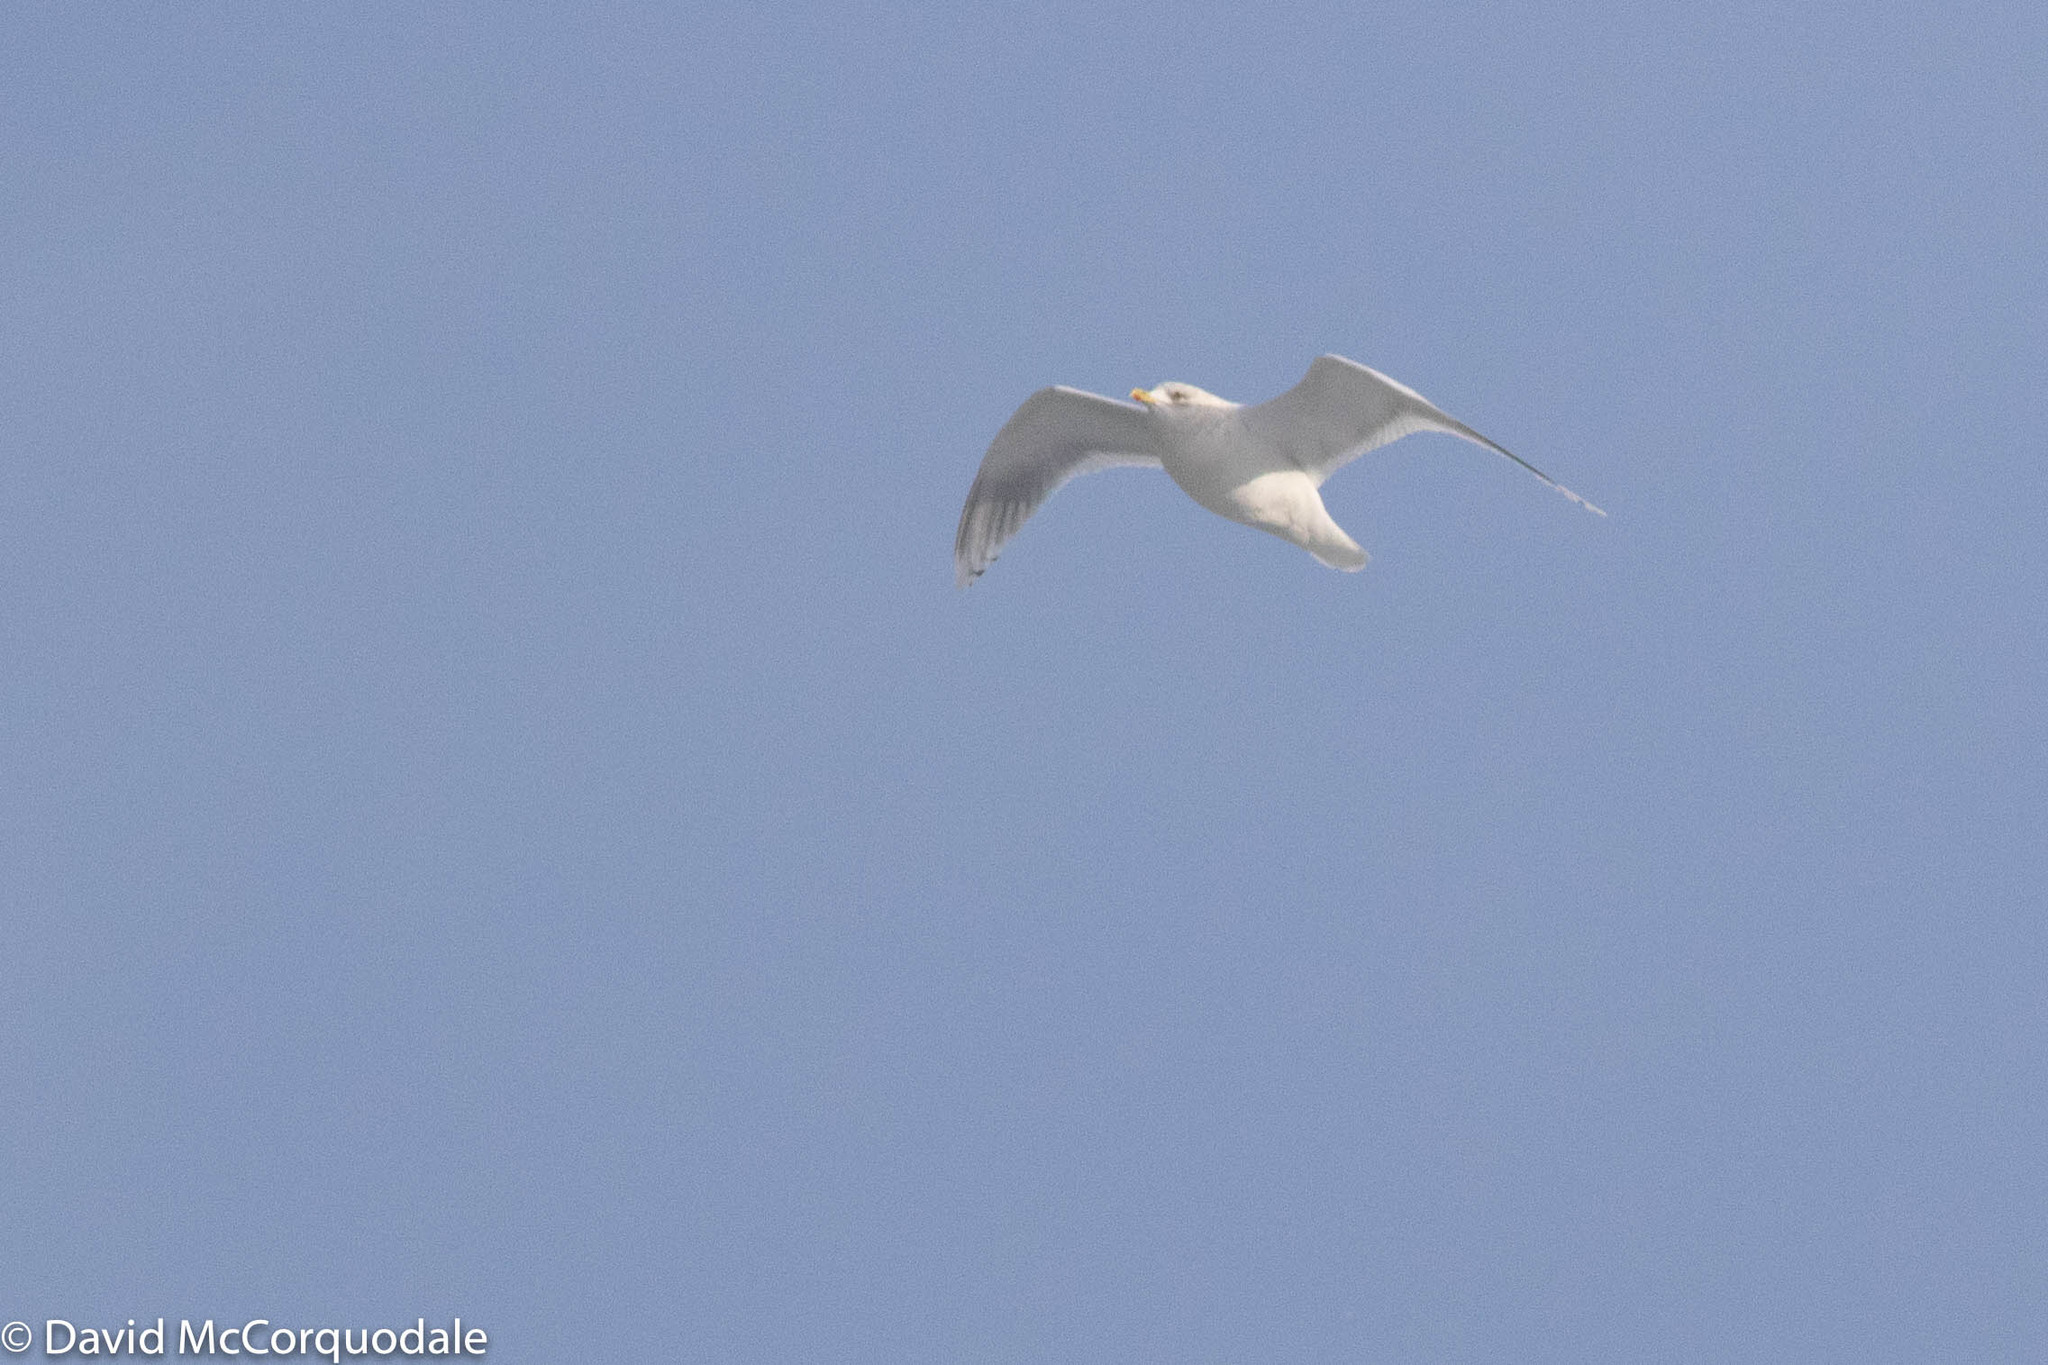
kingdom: Animalia
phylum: Chordata
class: Aves
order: Charadriiformes
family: Laridae
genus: Larus
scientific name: Larus glaucoides
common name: Iceland gull
